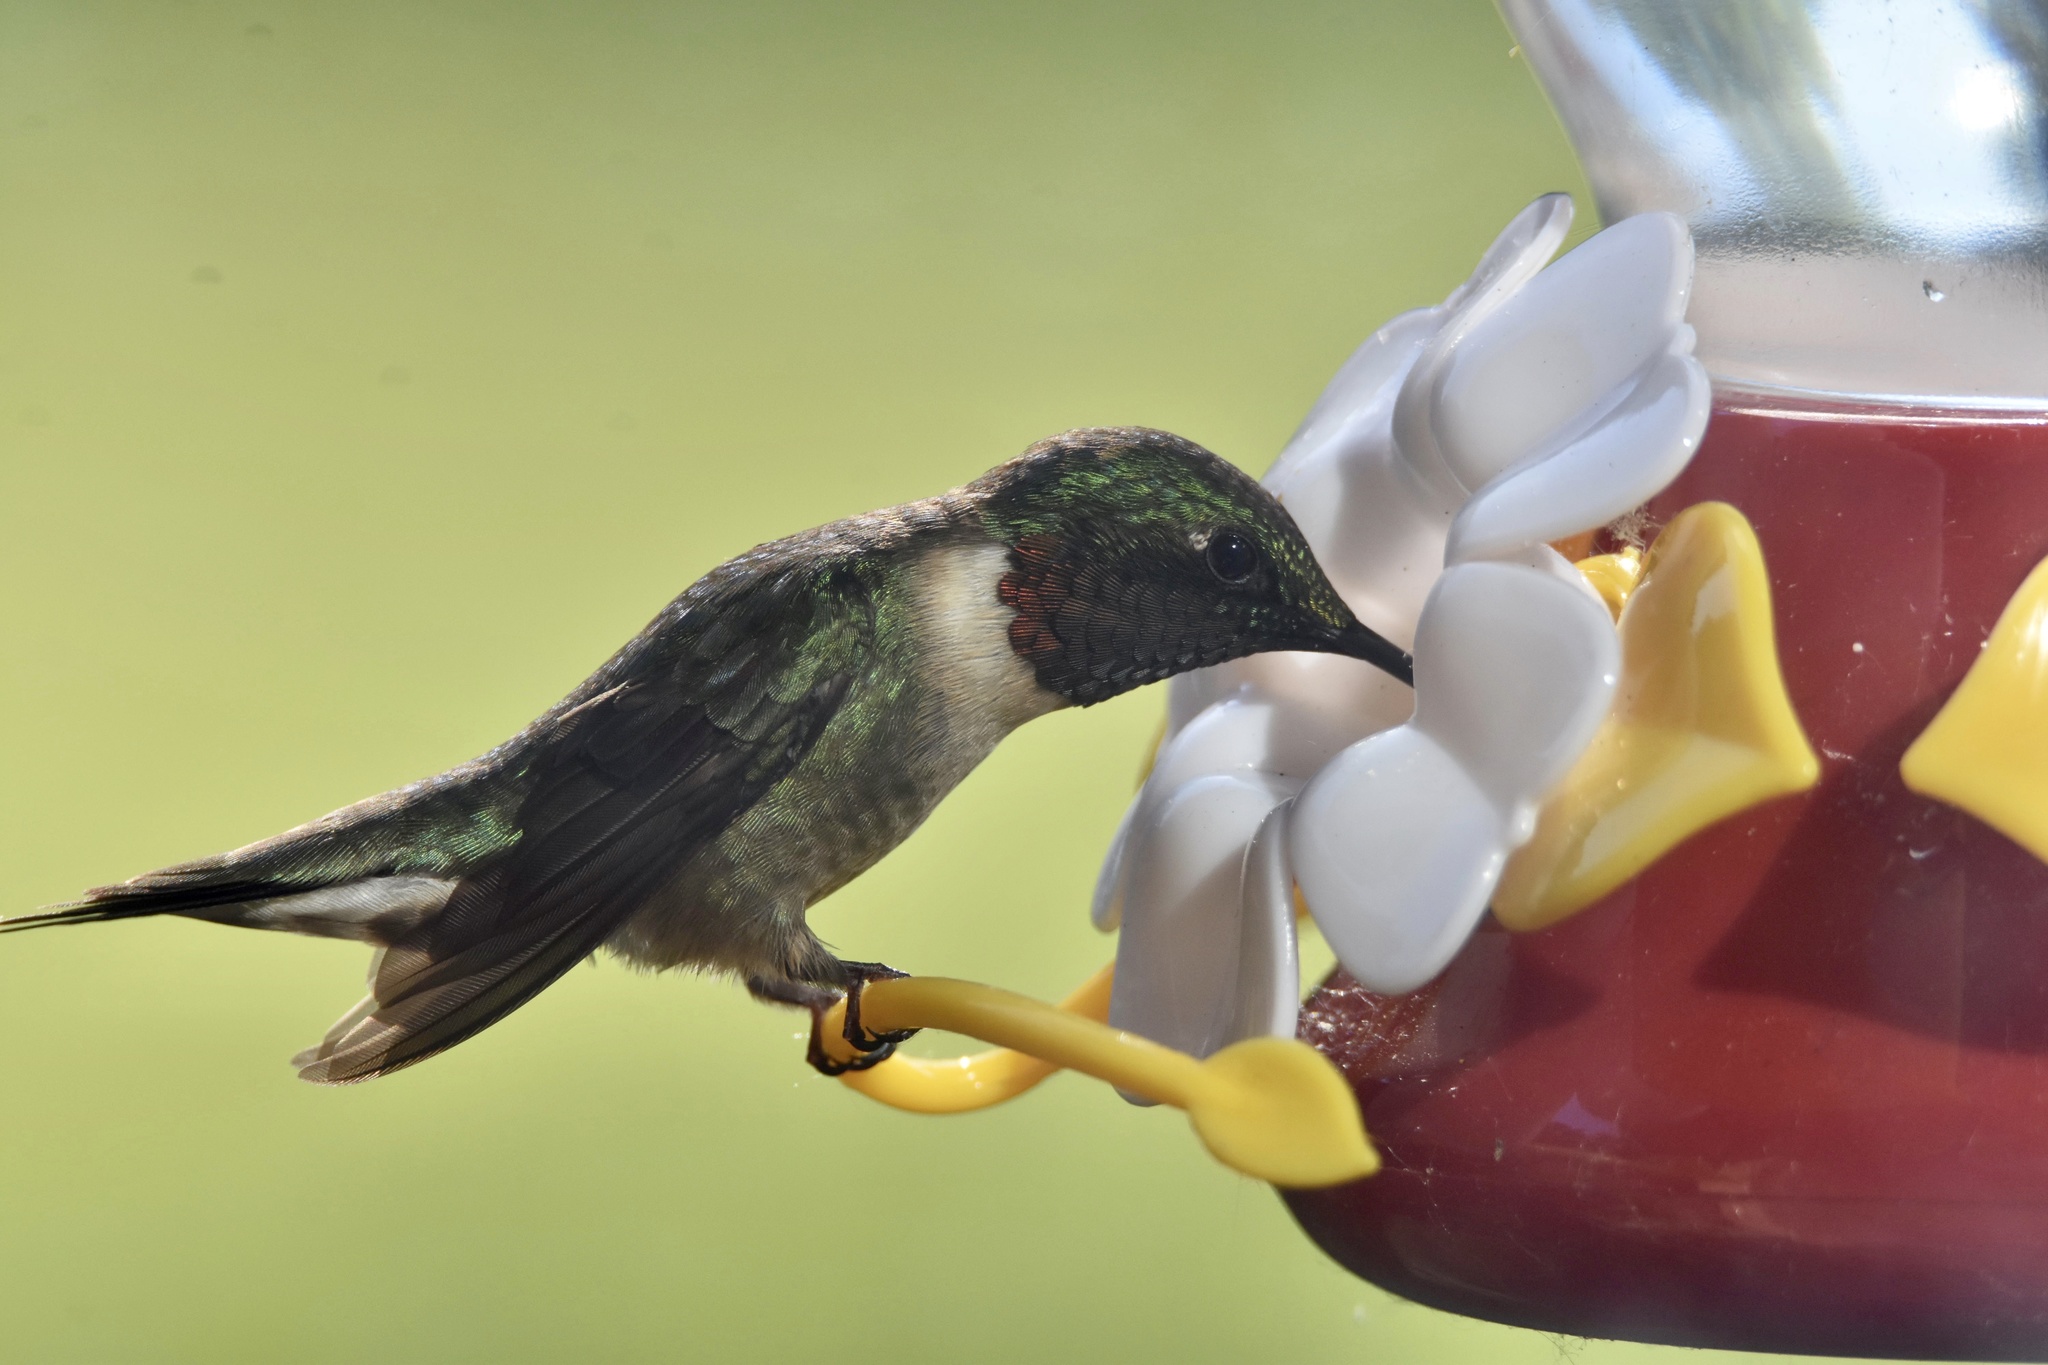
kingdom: Animalia
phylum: Chordata
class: Aves
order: Apodiformes
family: Trochilidae
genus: Archilochus
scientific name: Archilochus colubris
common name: Ruby-throated hummingbird
